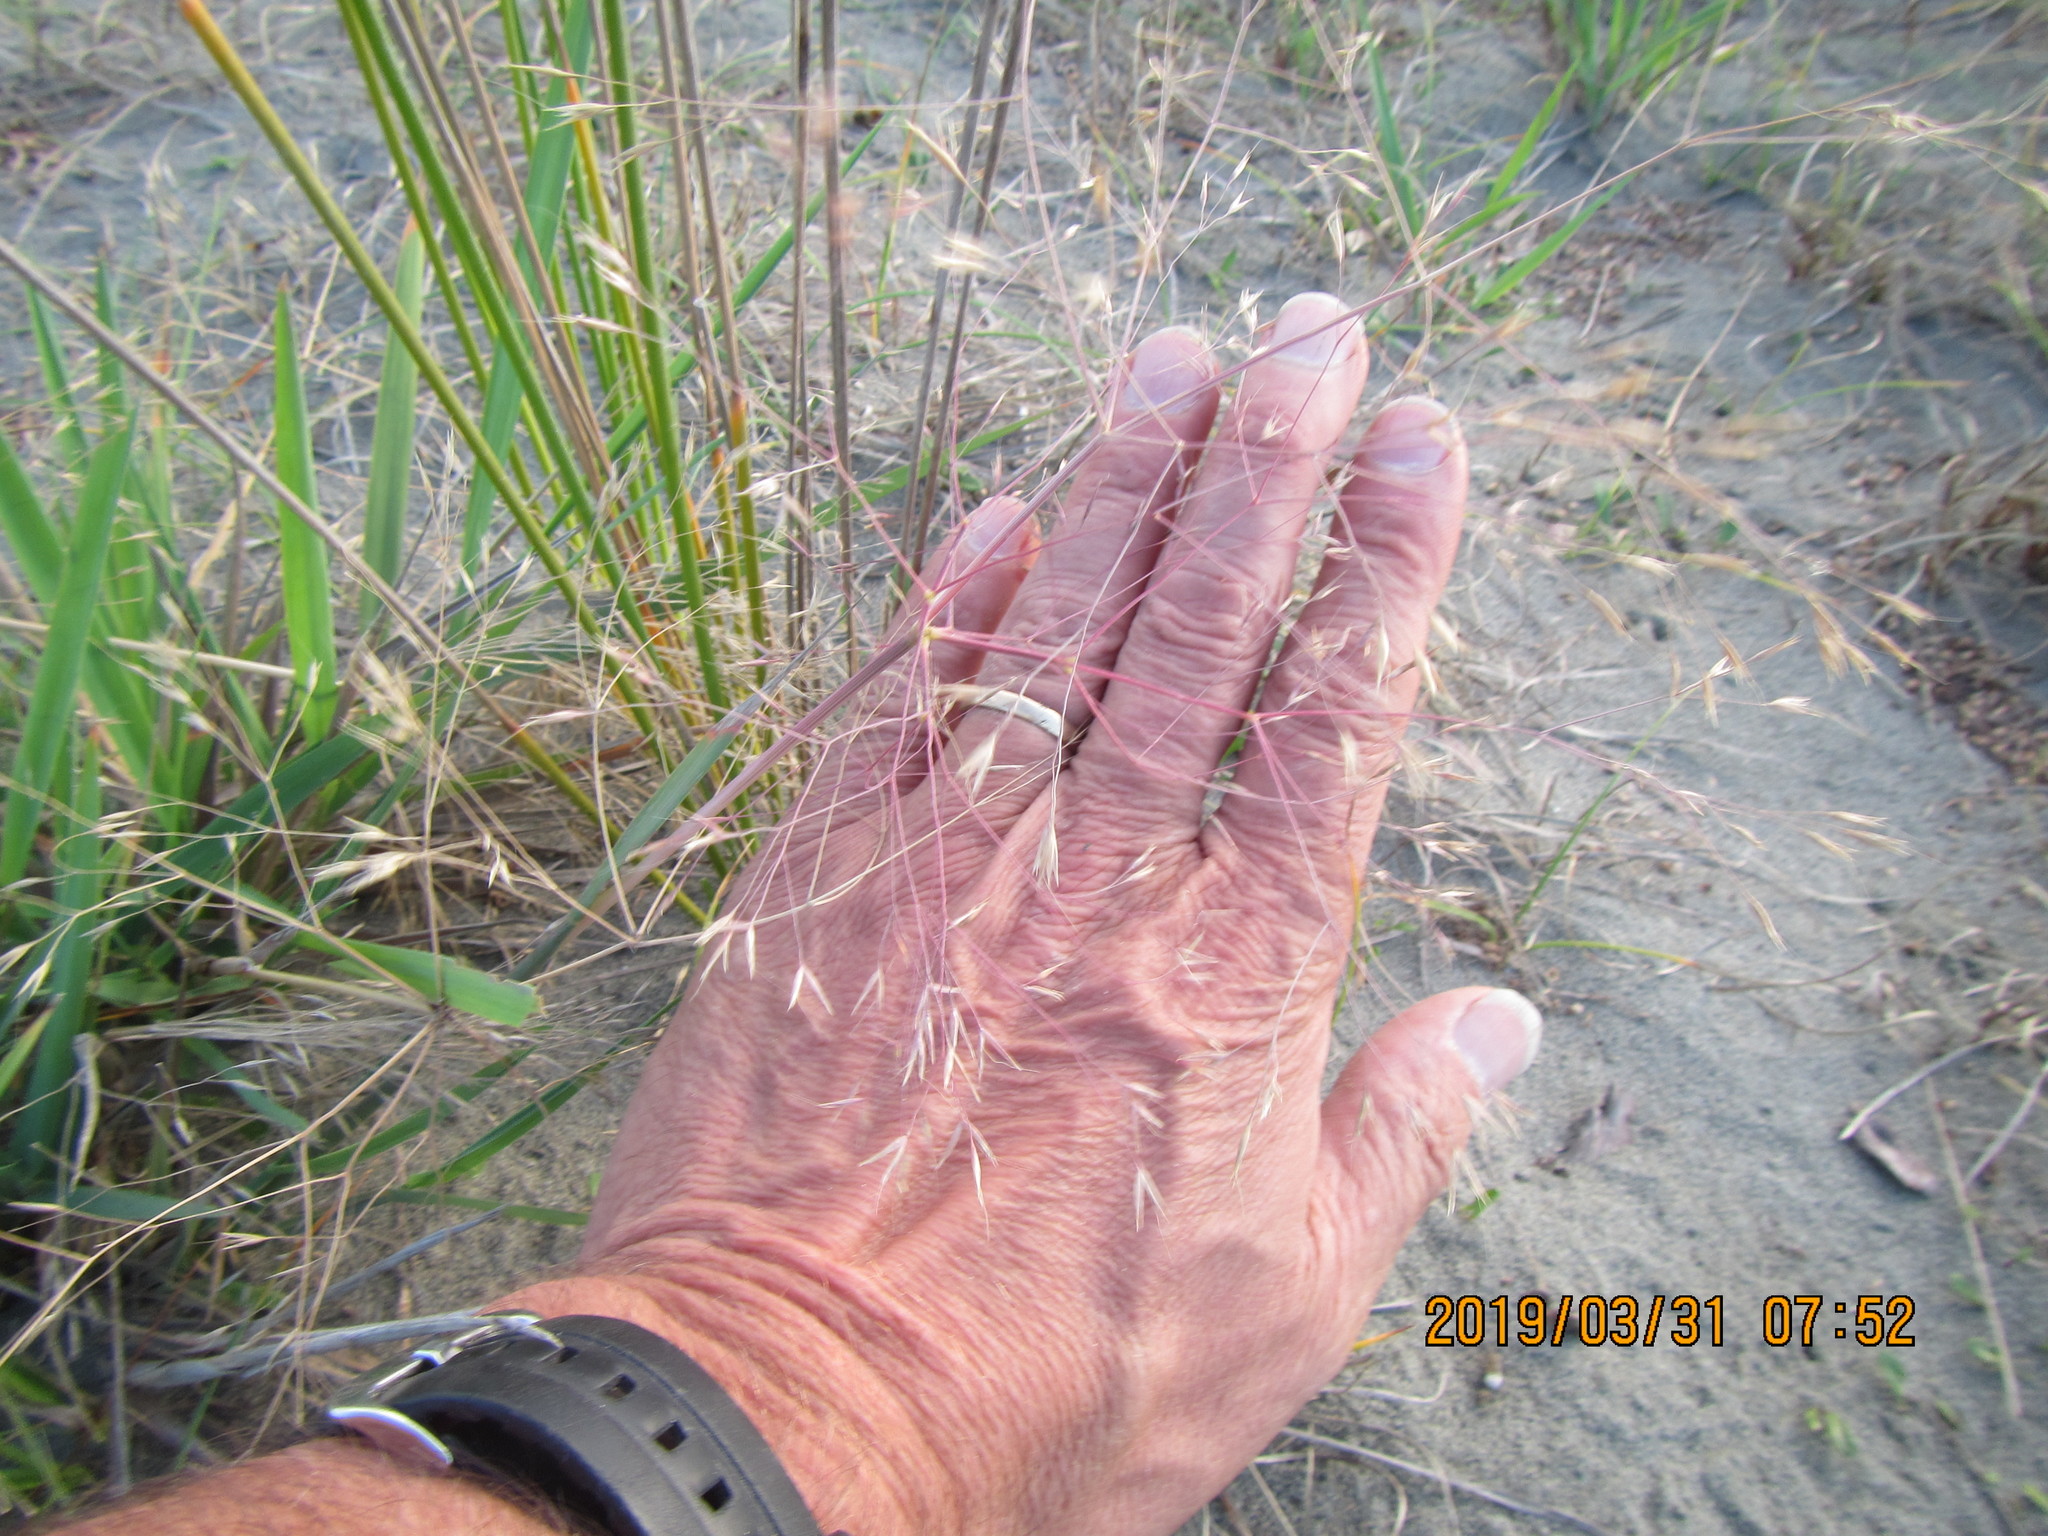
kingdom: Plantae
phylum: Tracheophyta
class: Liliopsida
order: Poales
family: Poaceae
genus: Lachnagrostis
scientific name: Lachnagrostis billardierei
